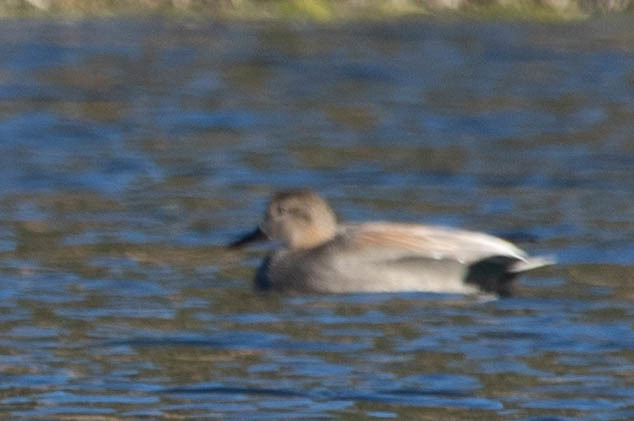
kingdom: Animalia
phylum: Chordata
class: Aves
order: Anseriformes
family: Anatidae
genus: Mareca
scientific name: Mareca strepera
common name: Gadwall
